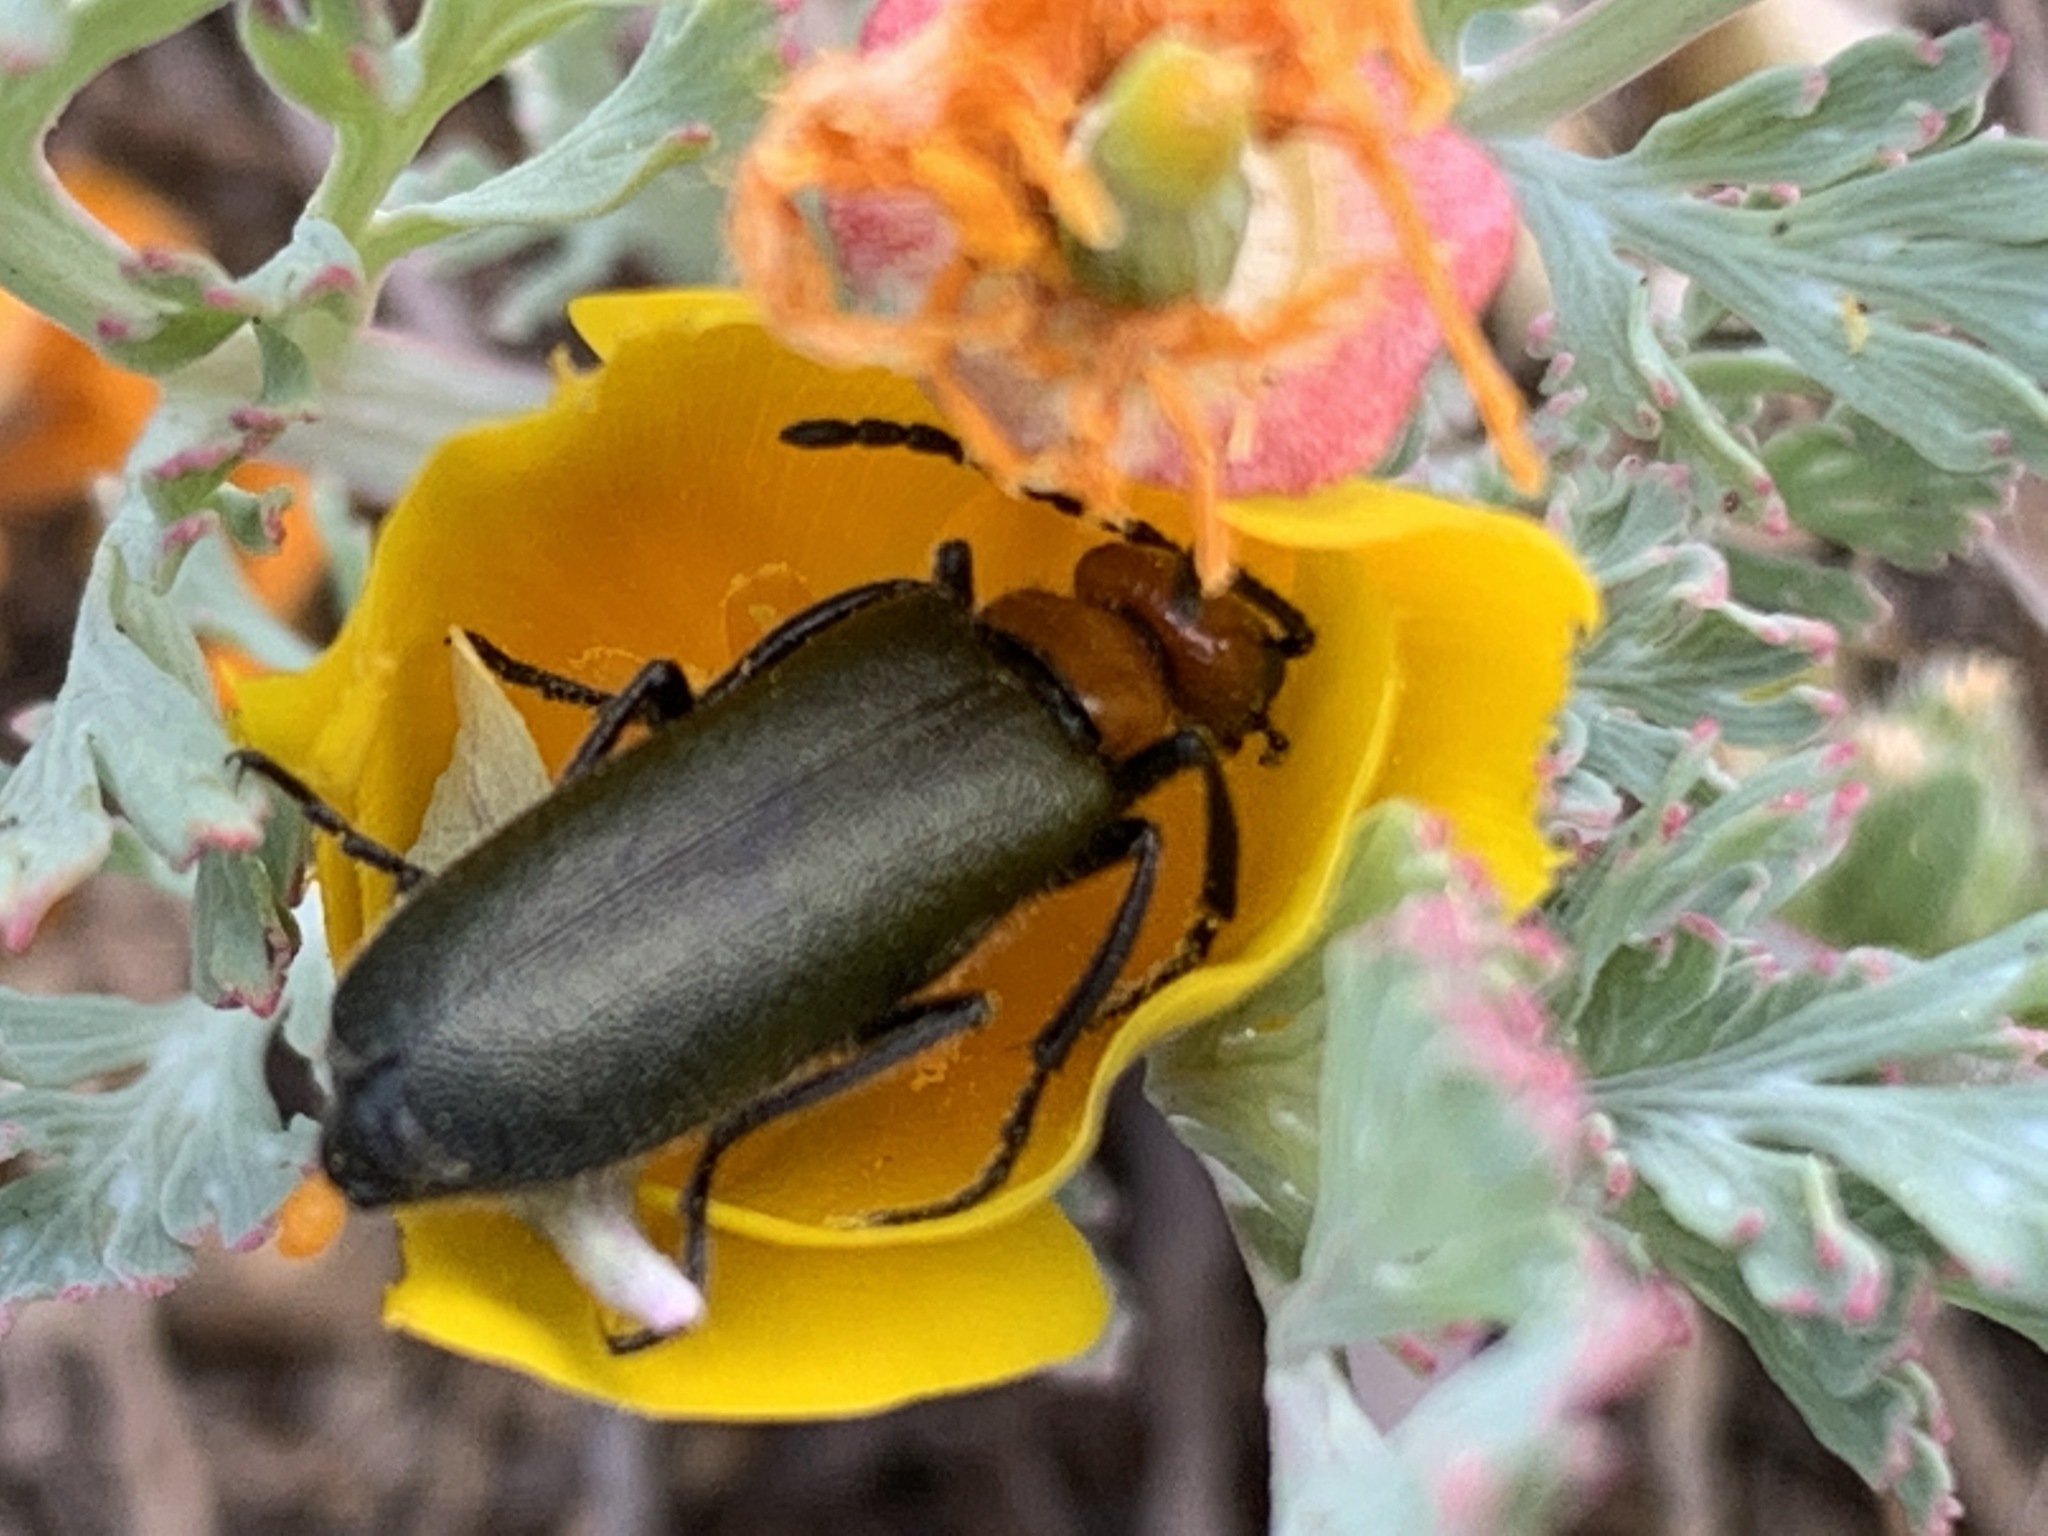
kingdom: Animalia
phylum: Arthropoda
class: Insecta
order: Coleoptera
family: Meloidae
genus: Lytta
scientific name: Lytta aeneipennis
